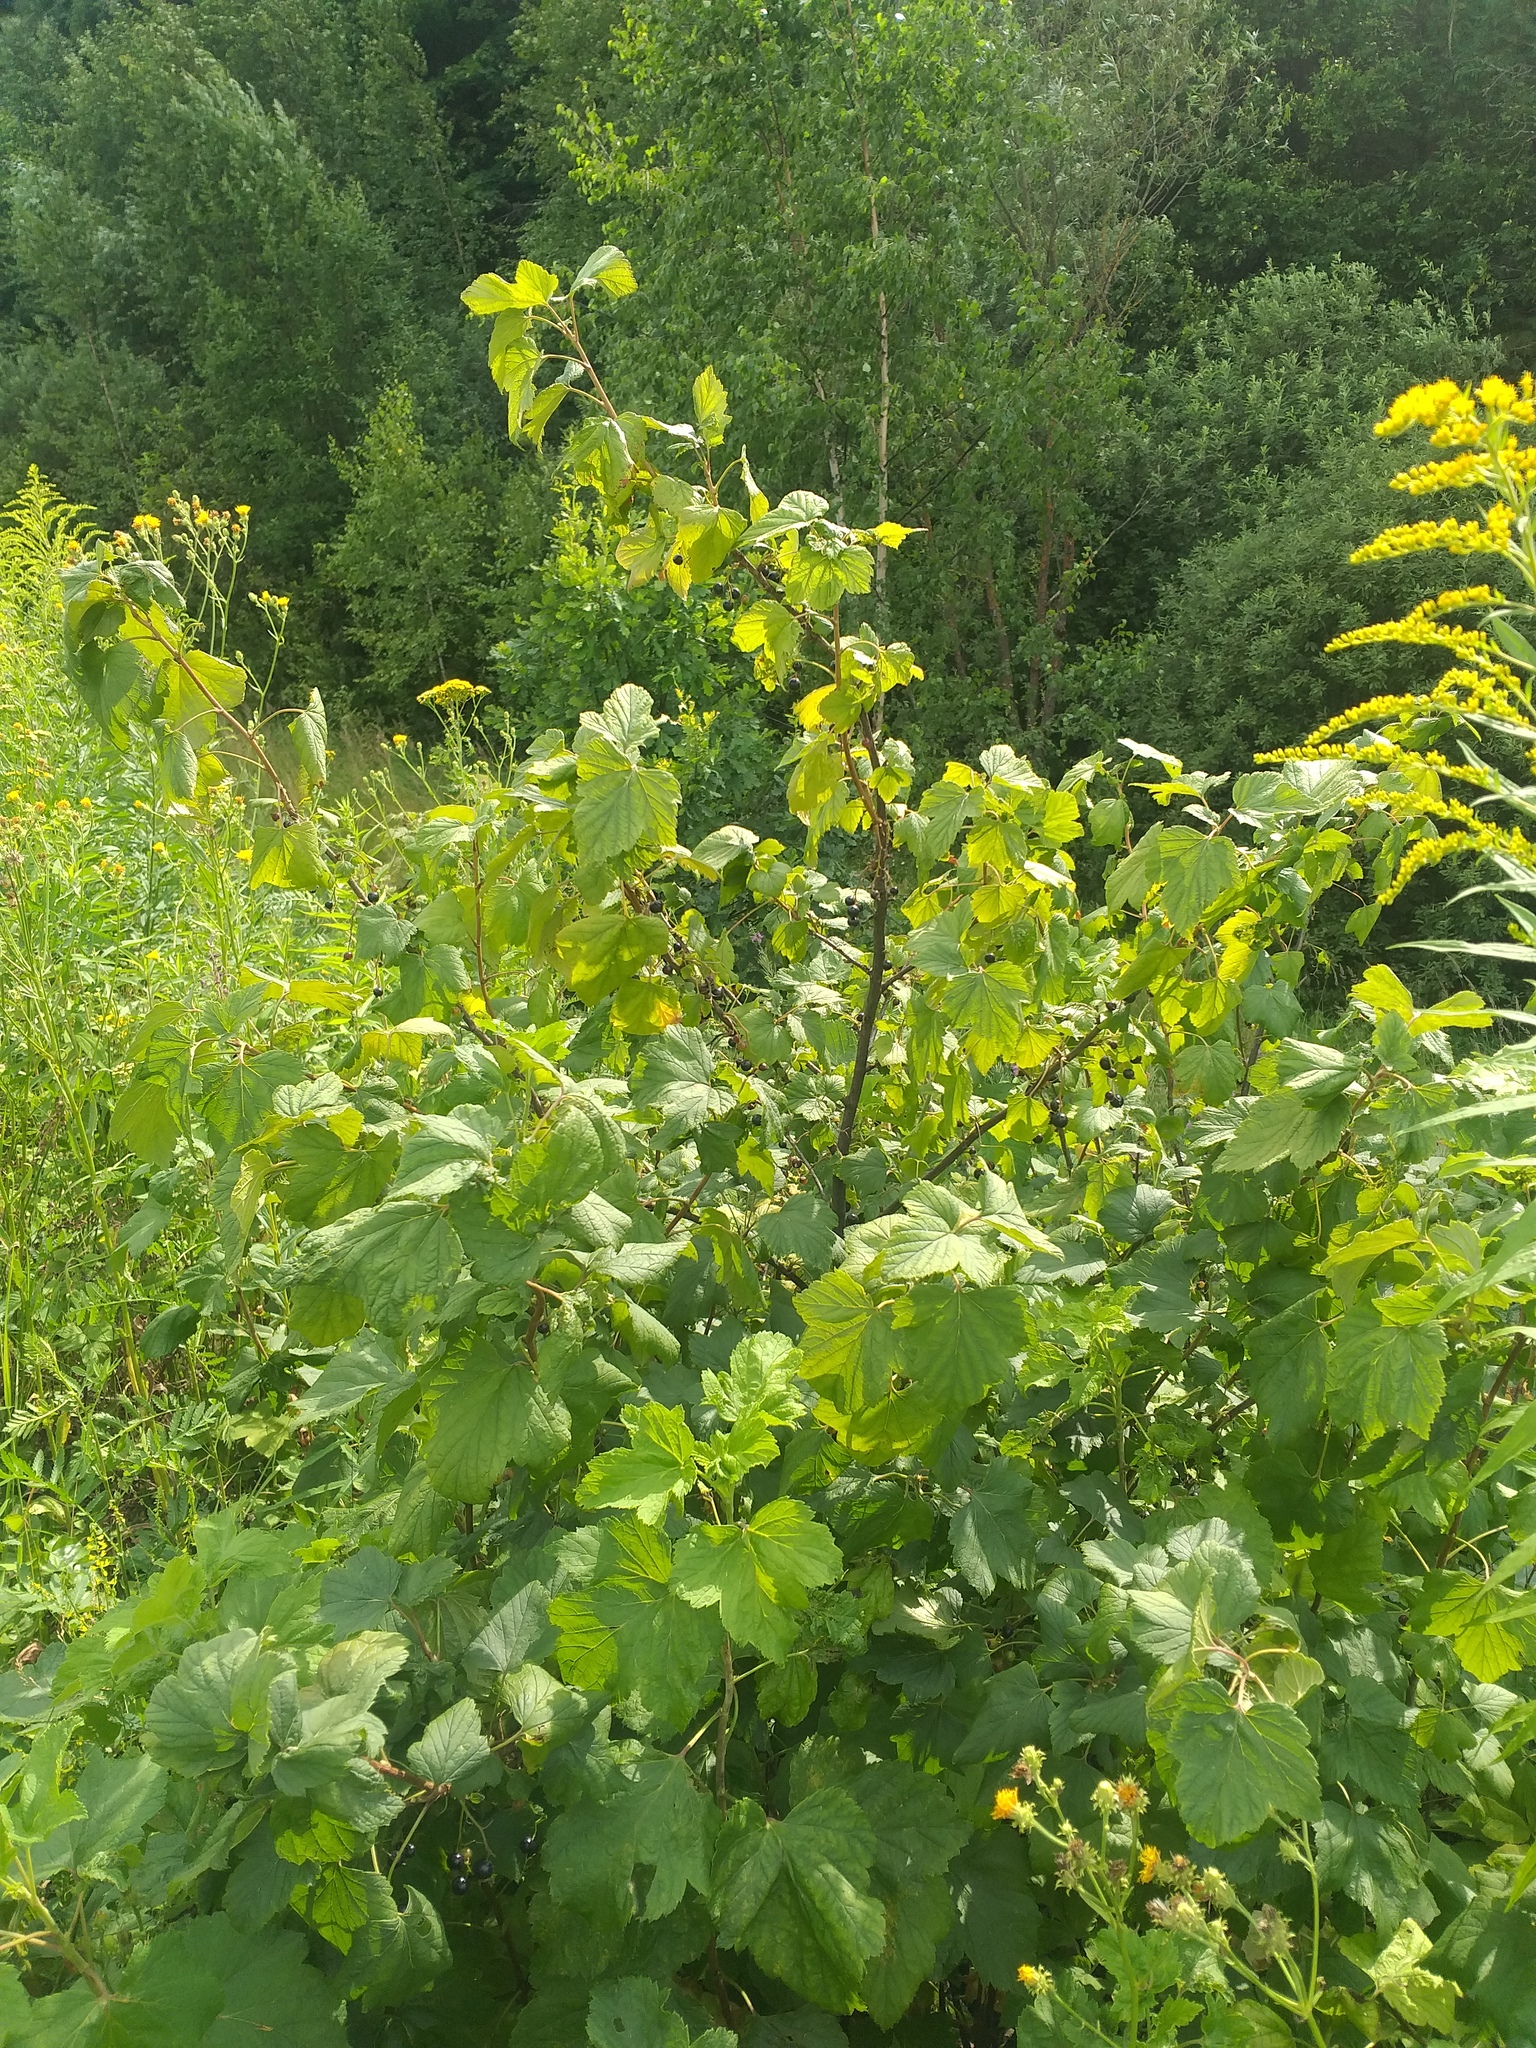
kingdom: Plantae
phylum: Tracheophyta
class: Magnoliopsida
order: Saxifragales
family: Grossulariaceae
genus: Ribes
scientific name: Ribes nigrum
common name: Black currant
